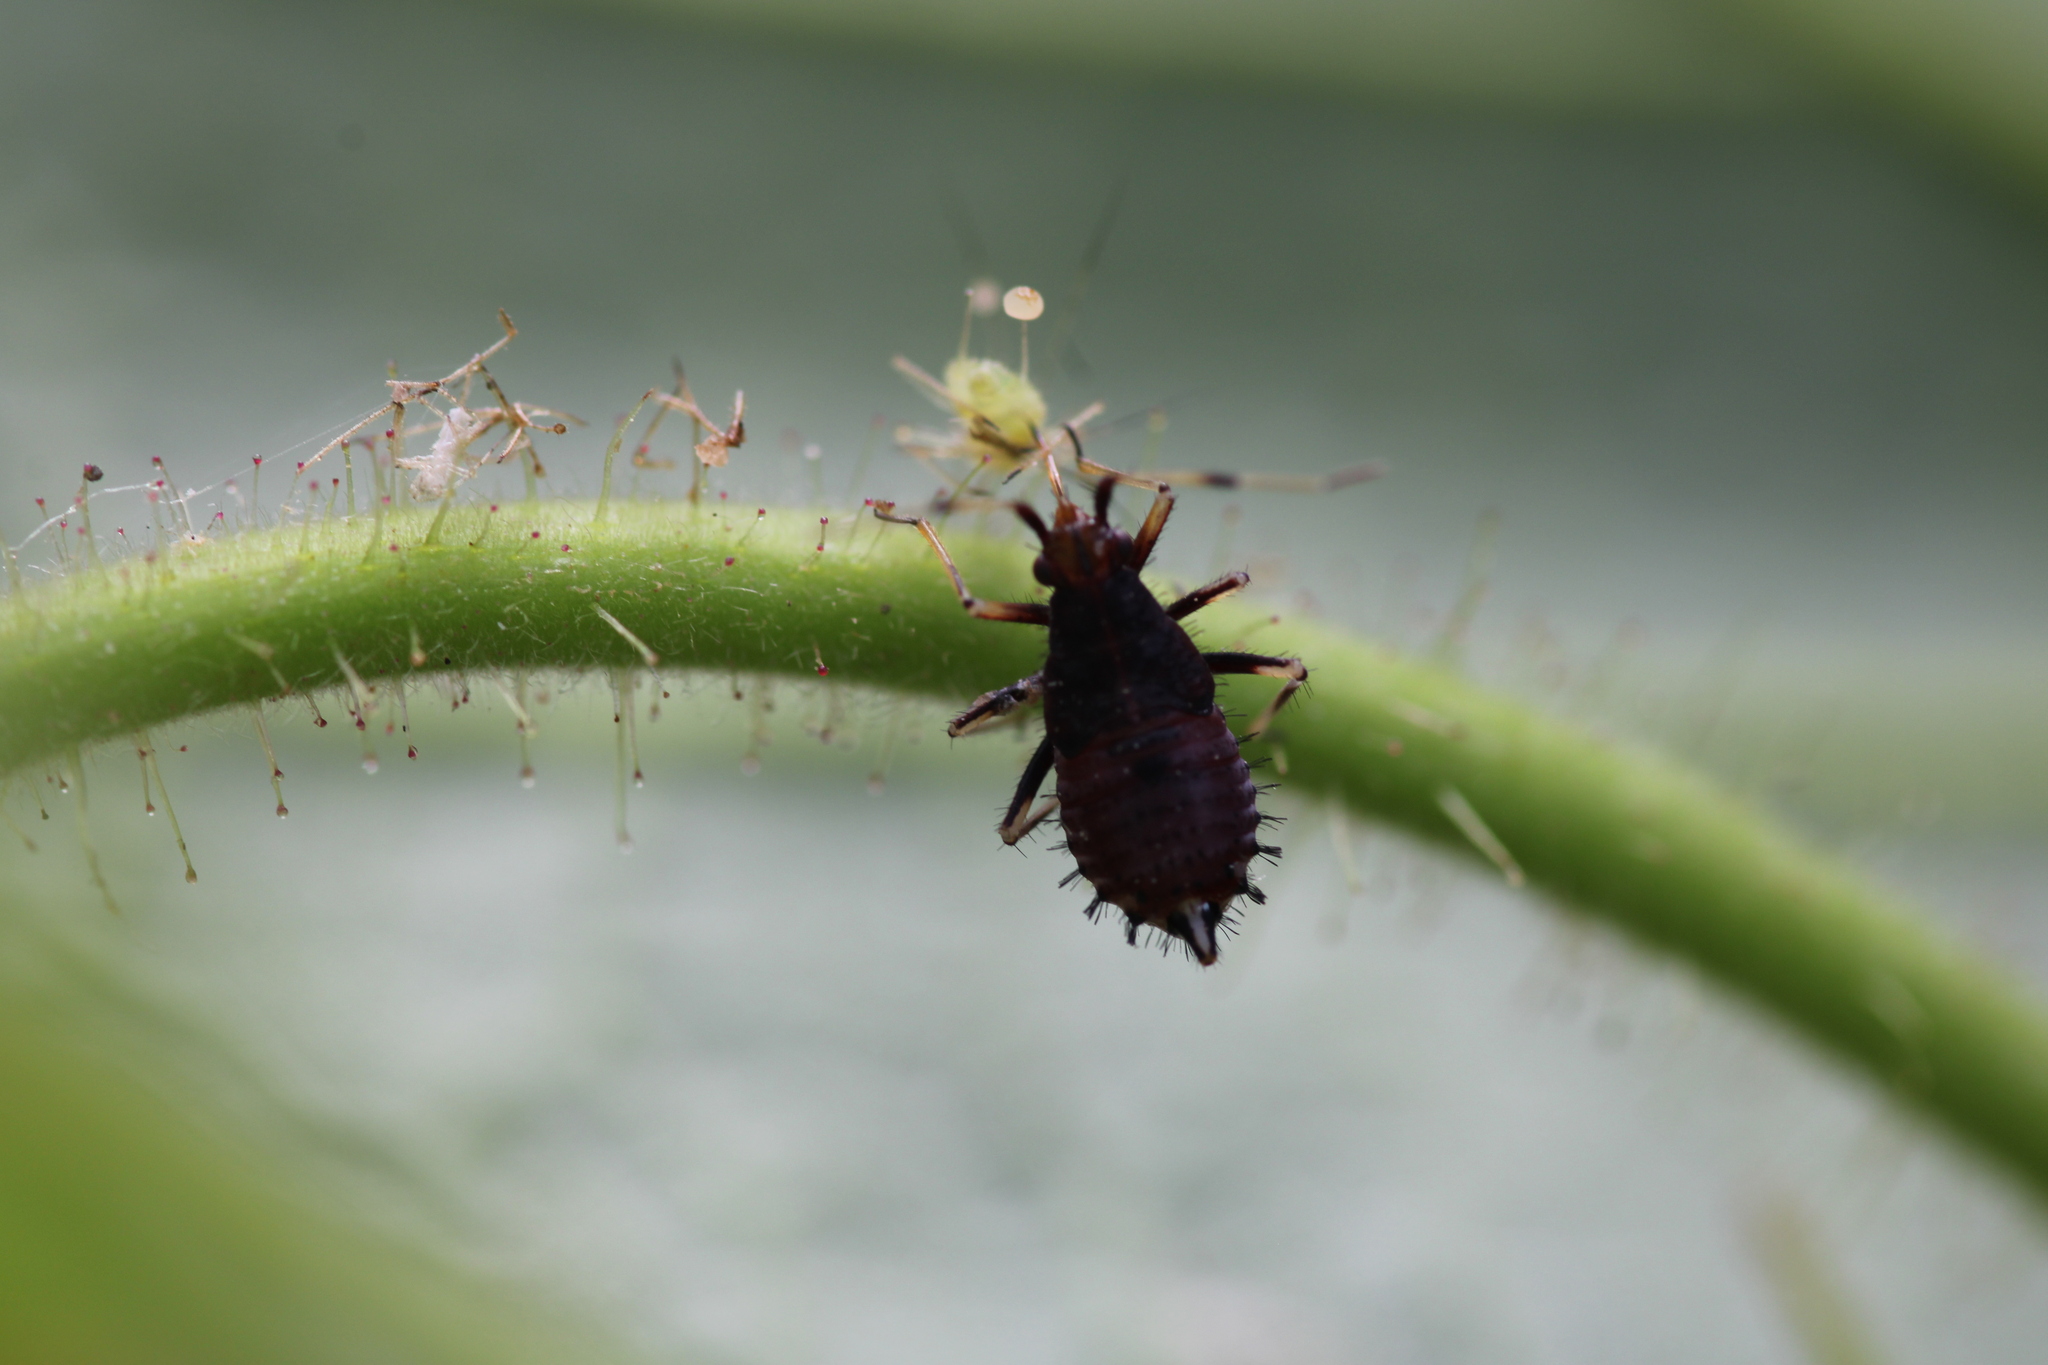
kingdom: Animalia
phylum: Arthropoda
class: Insecta
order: Hemiptera
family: Miridae
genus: Deraeocoris
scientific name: Deraeocoris ruber
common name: Plant bug
